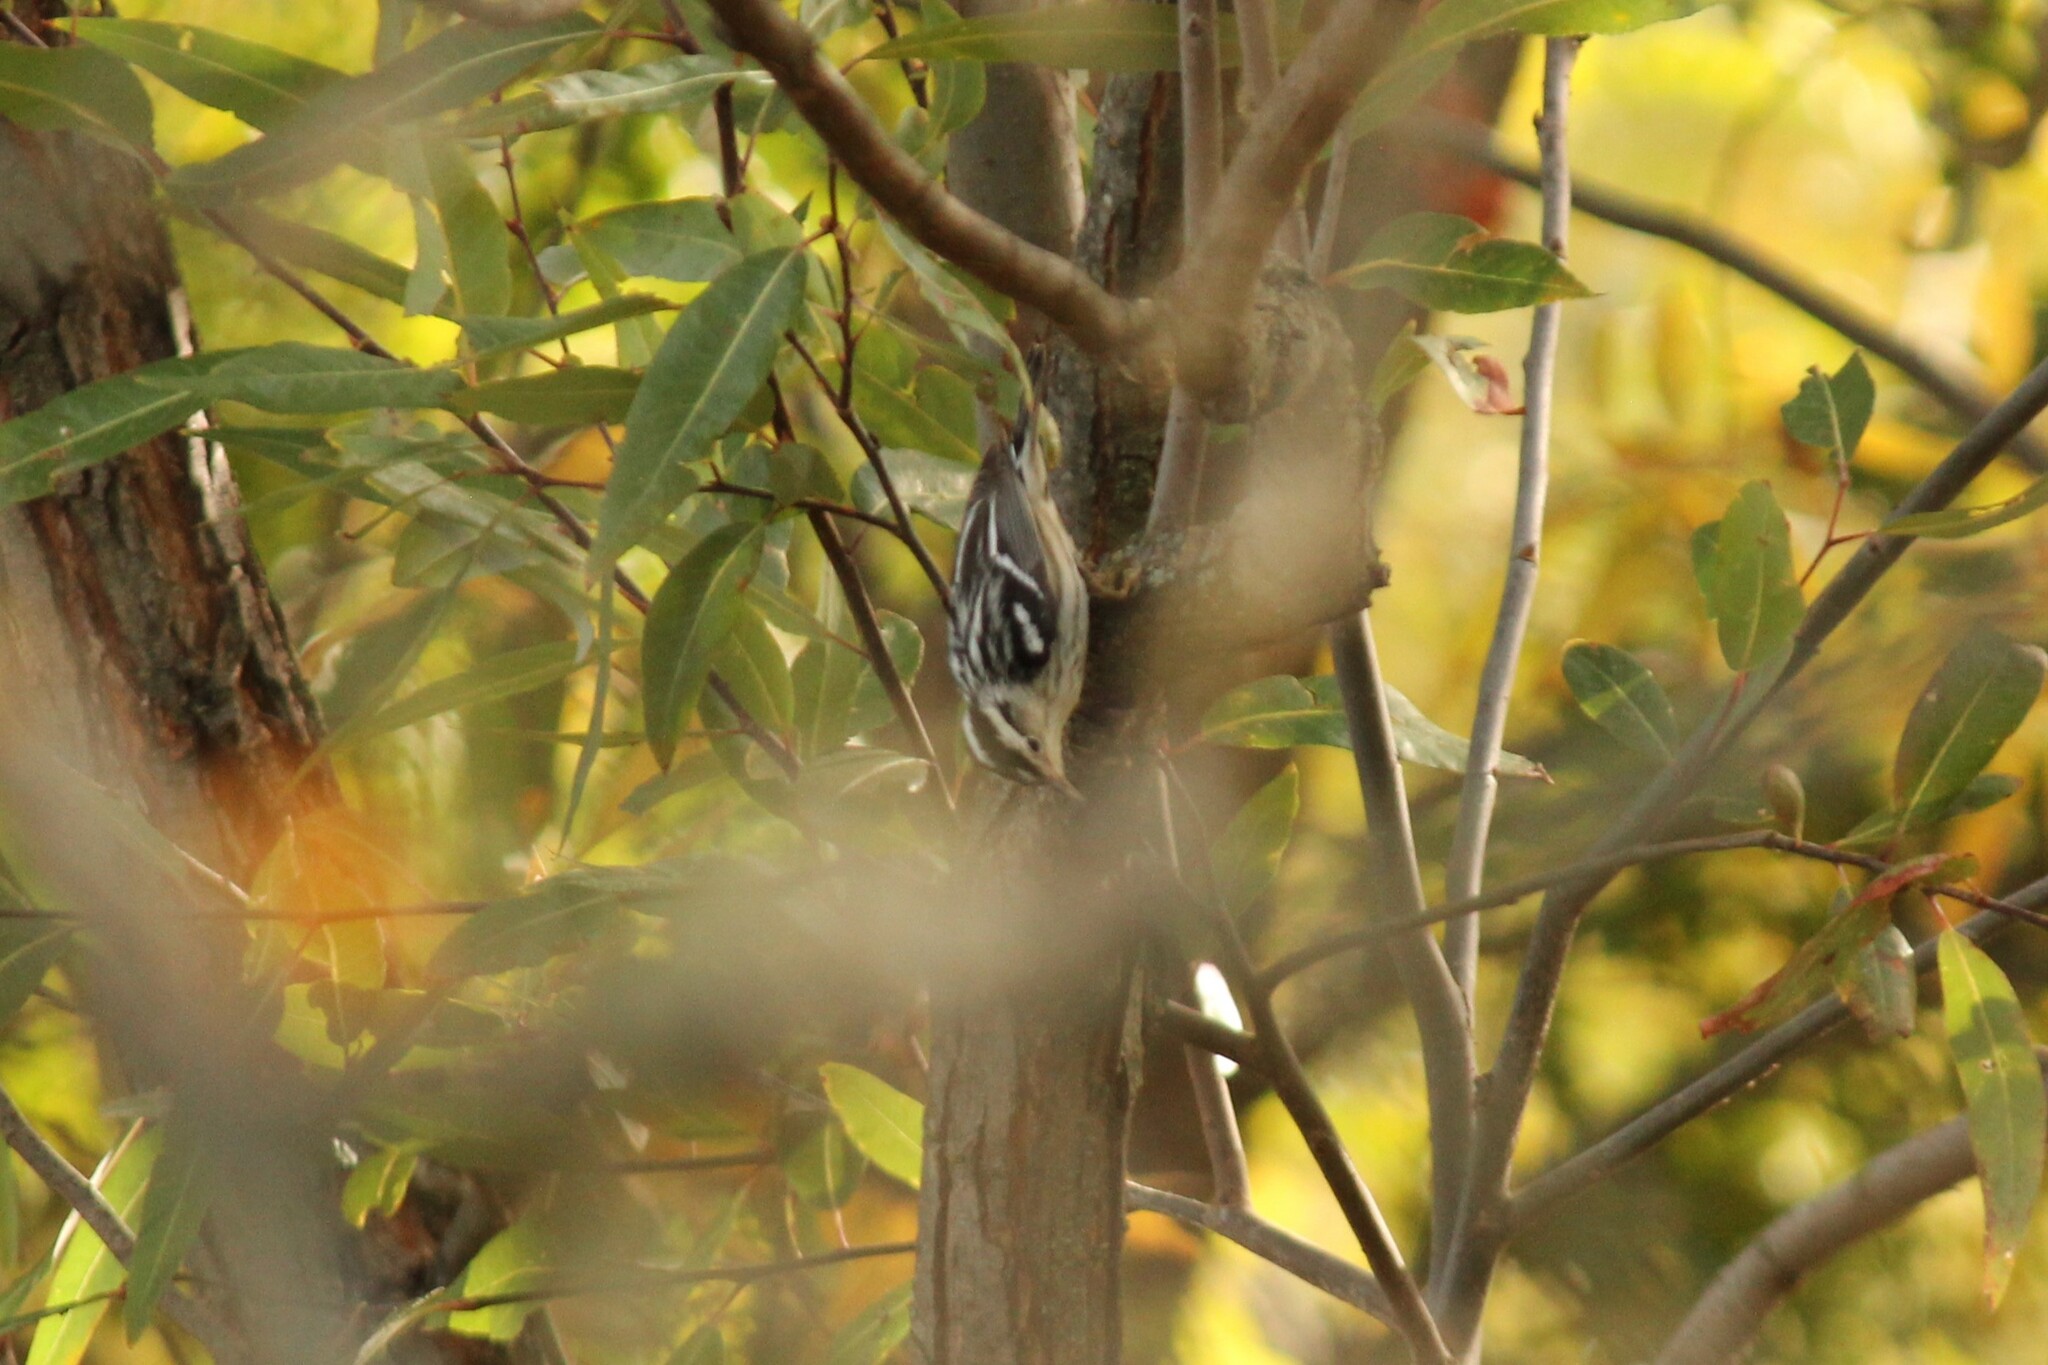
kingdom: Animalia
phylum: Chordata
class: Aves
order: Passeriformes
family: Parulidae
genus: Mniotilta
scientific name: Mniotilta varia
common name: Black-and-white warbler
